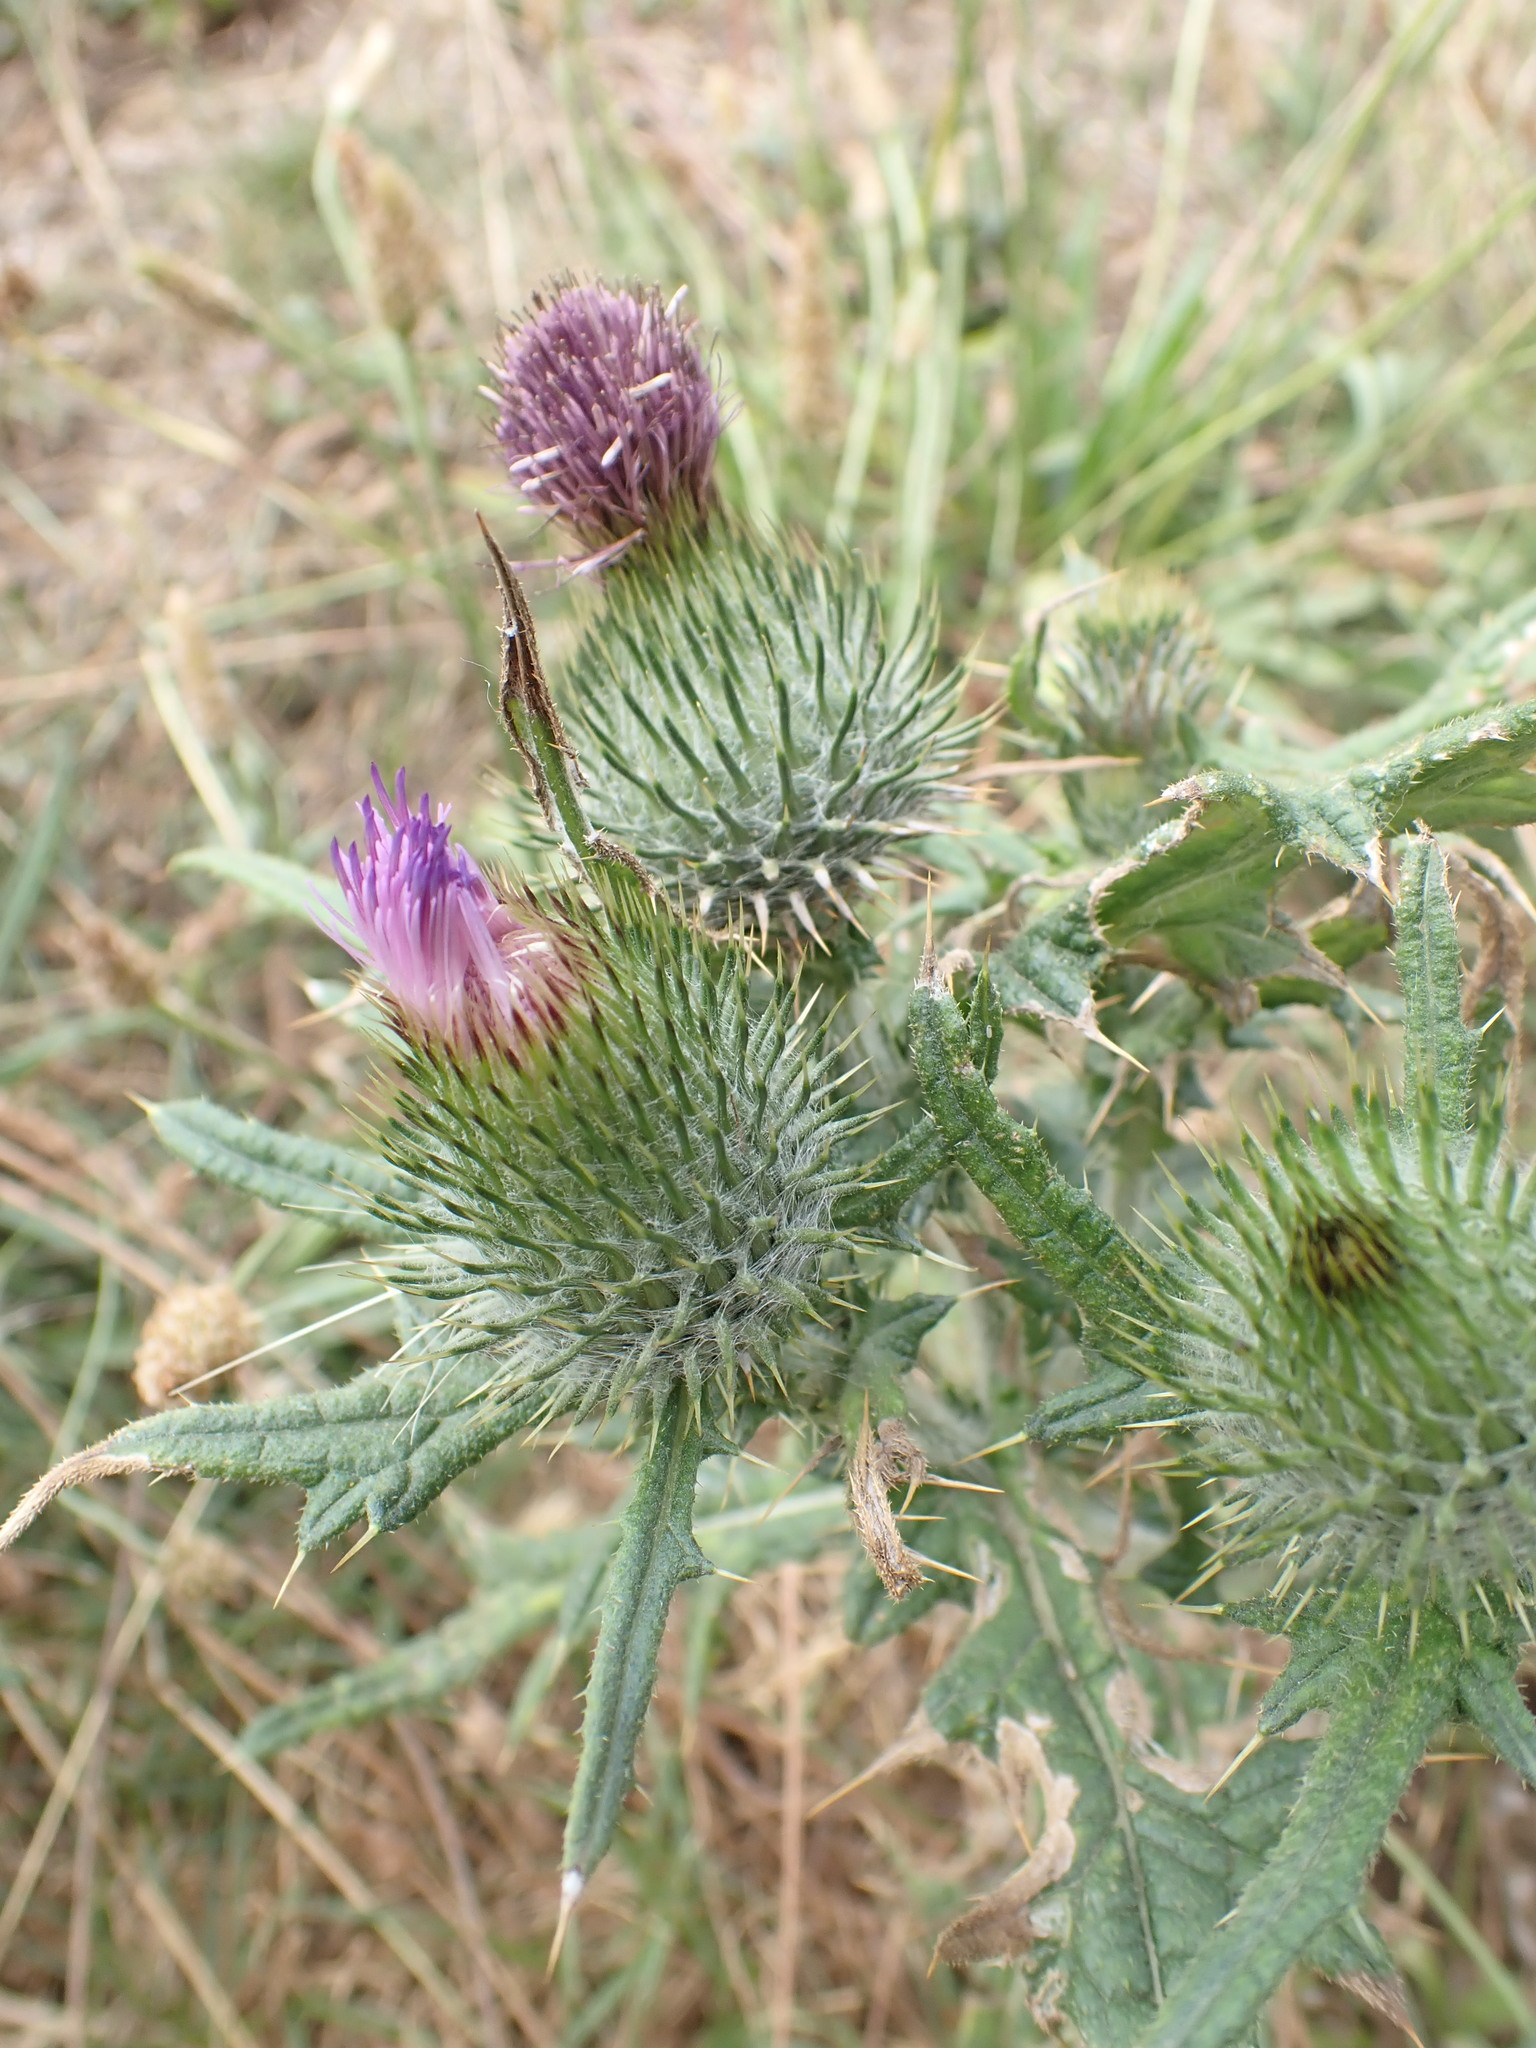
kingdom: Plantae
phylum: Tracheophyta
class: Magnoliopsida
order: Asterales
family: Asteraceae
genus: Cirsium
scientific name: Cirsium vulgare
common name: Bull thistle
